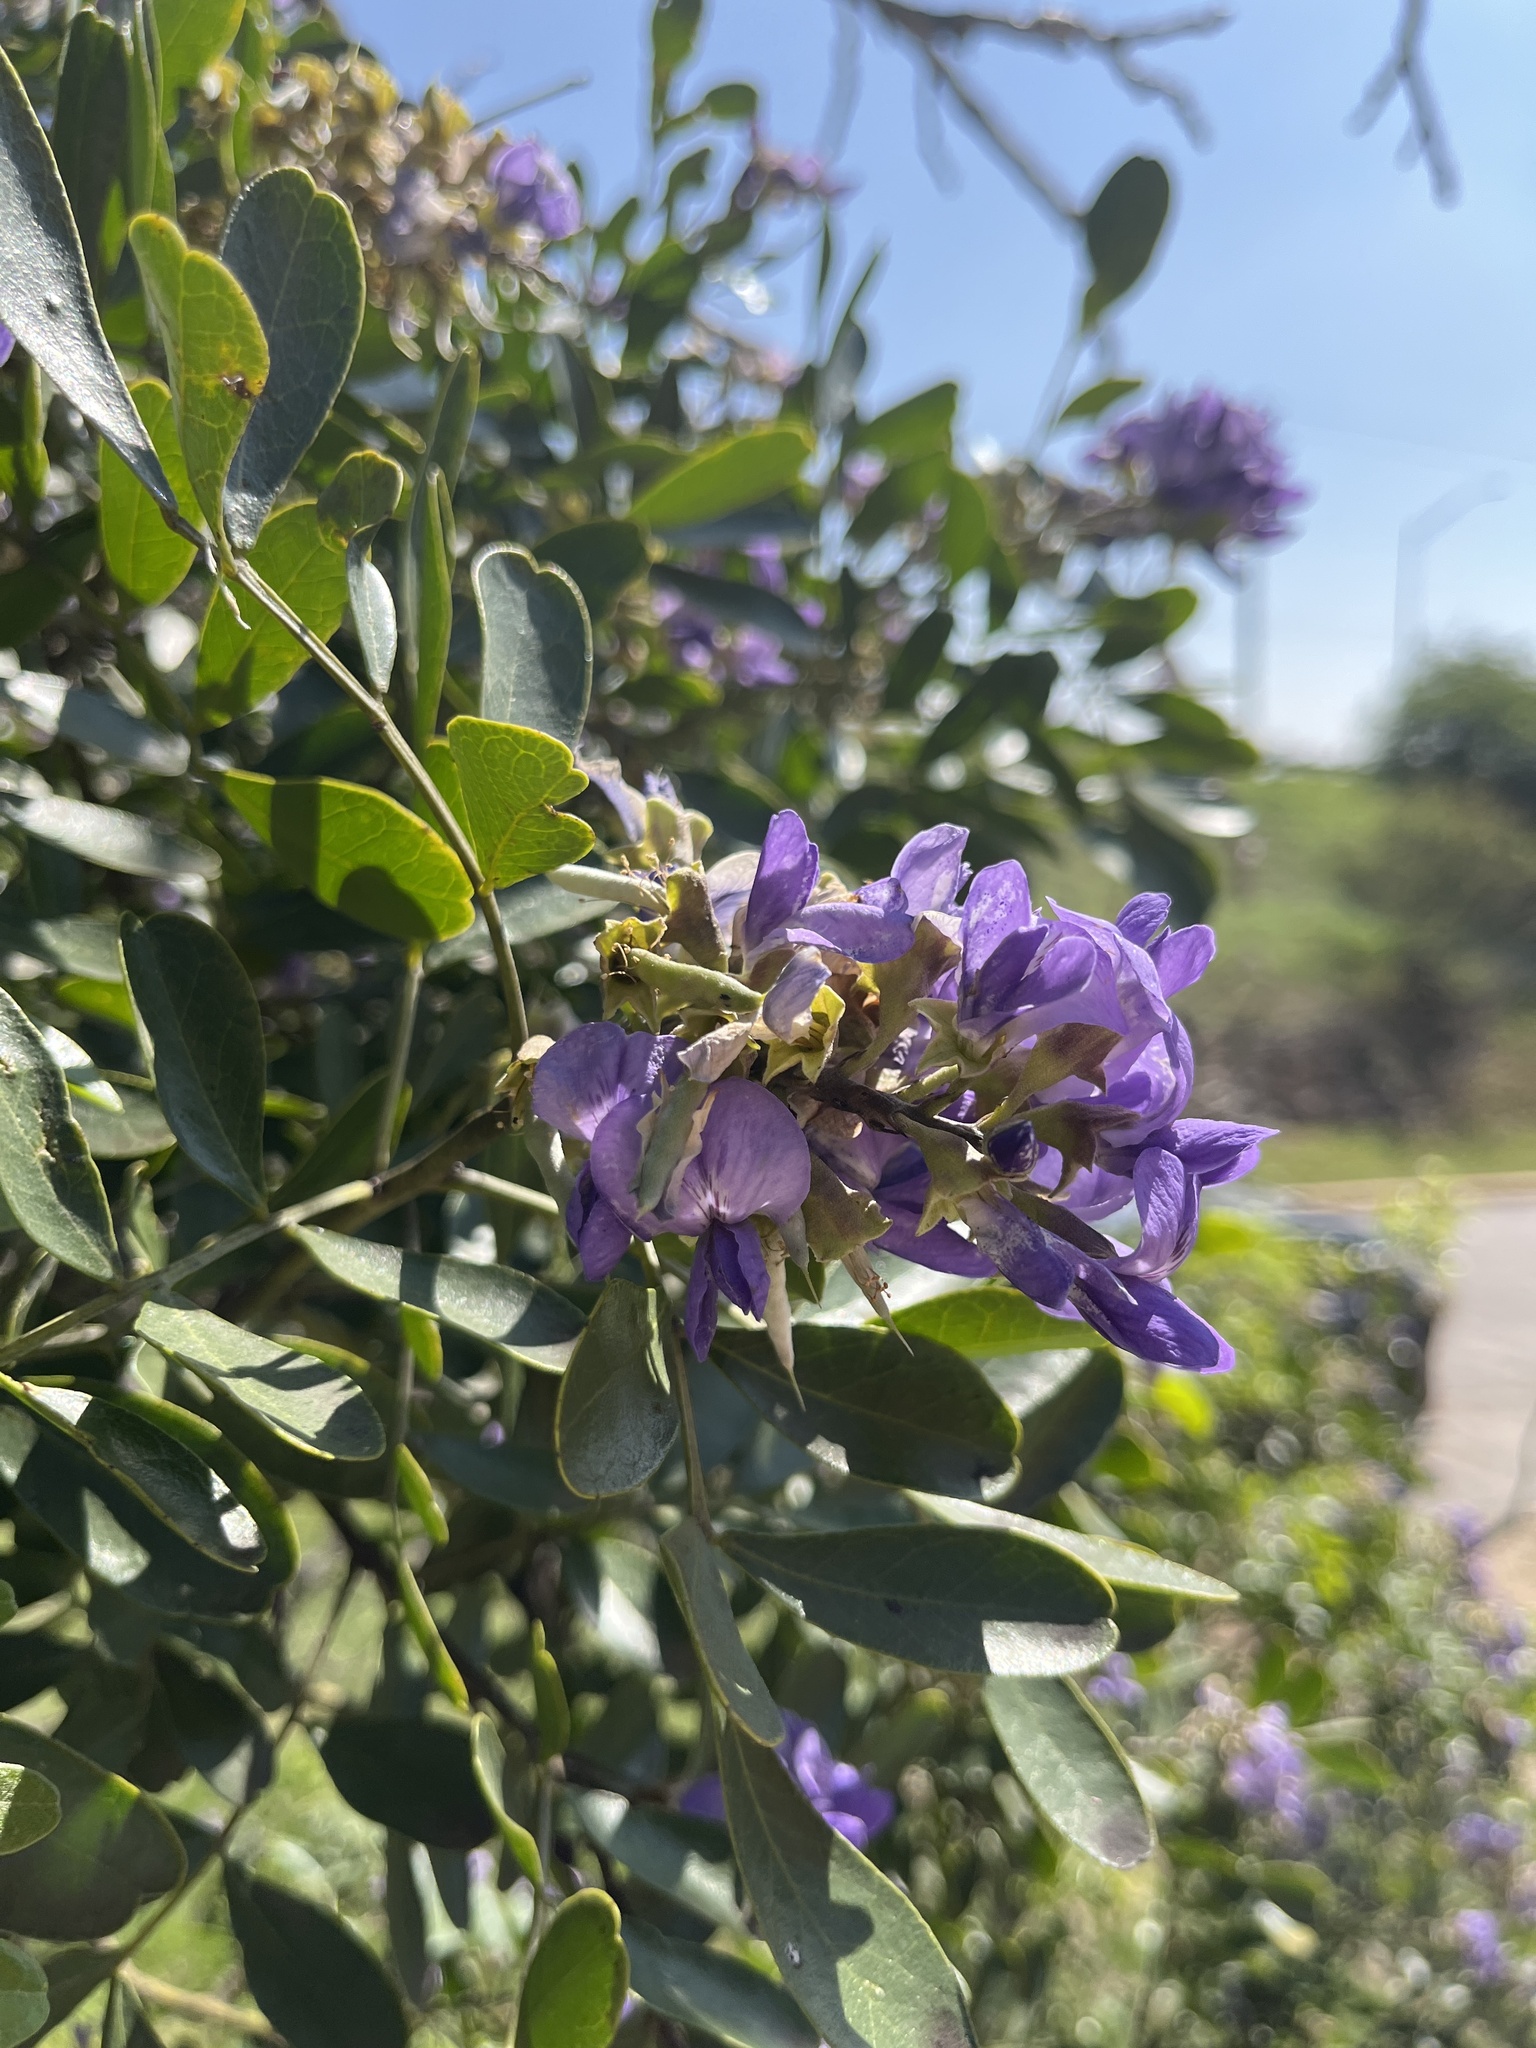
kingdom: Plantae
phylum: Tracheophyta
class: Magnoliopsida
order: Fabales
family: Fabaceae
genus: Dermatophyllum
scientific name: Dermatophyllum secundiflorum
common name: Texas-mountain-laurel
